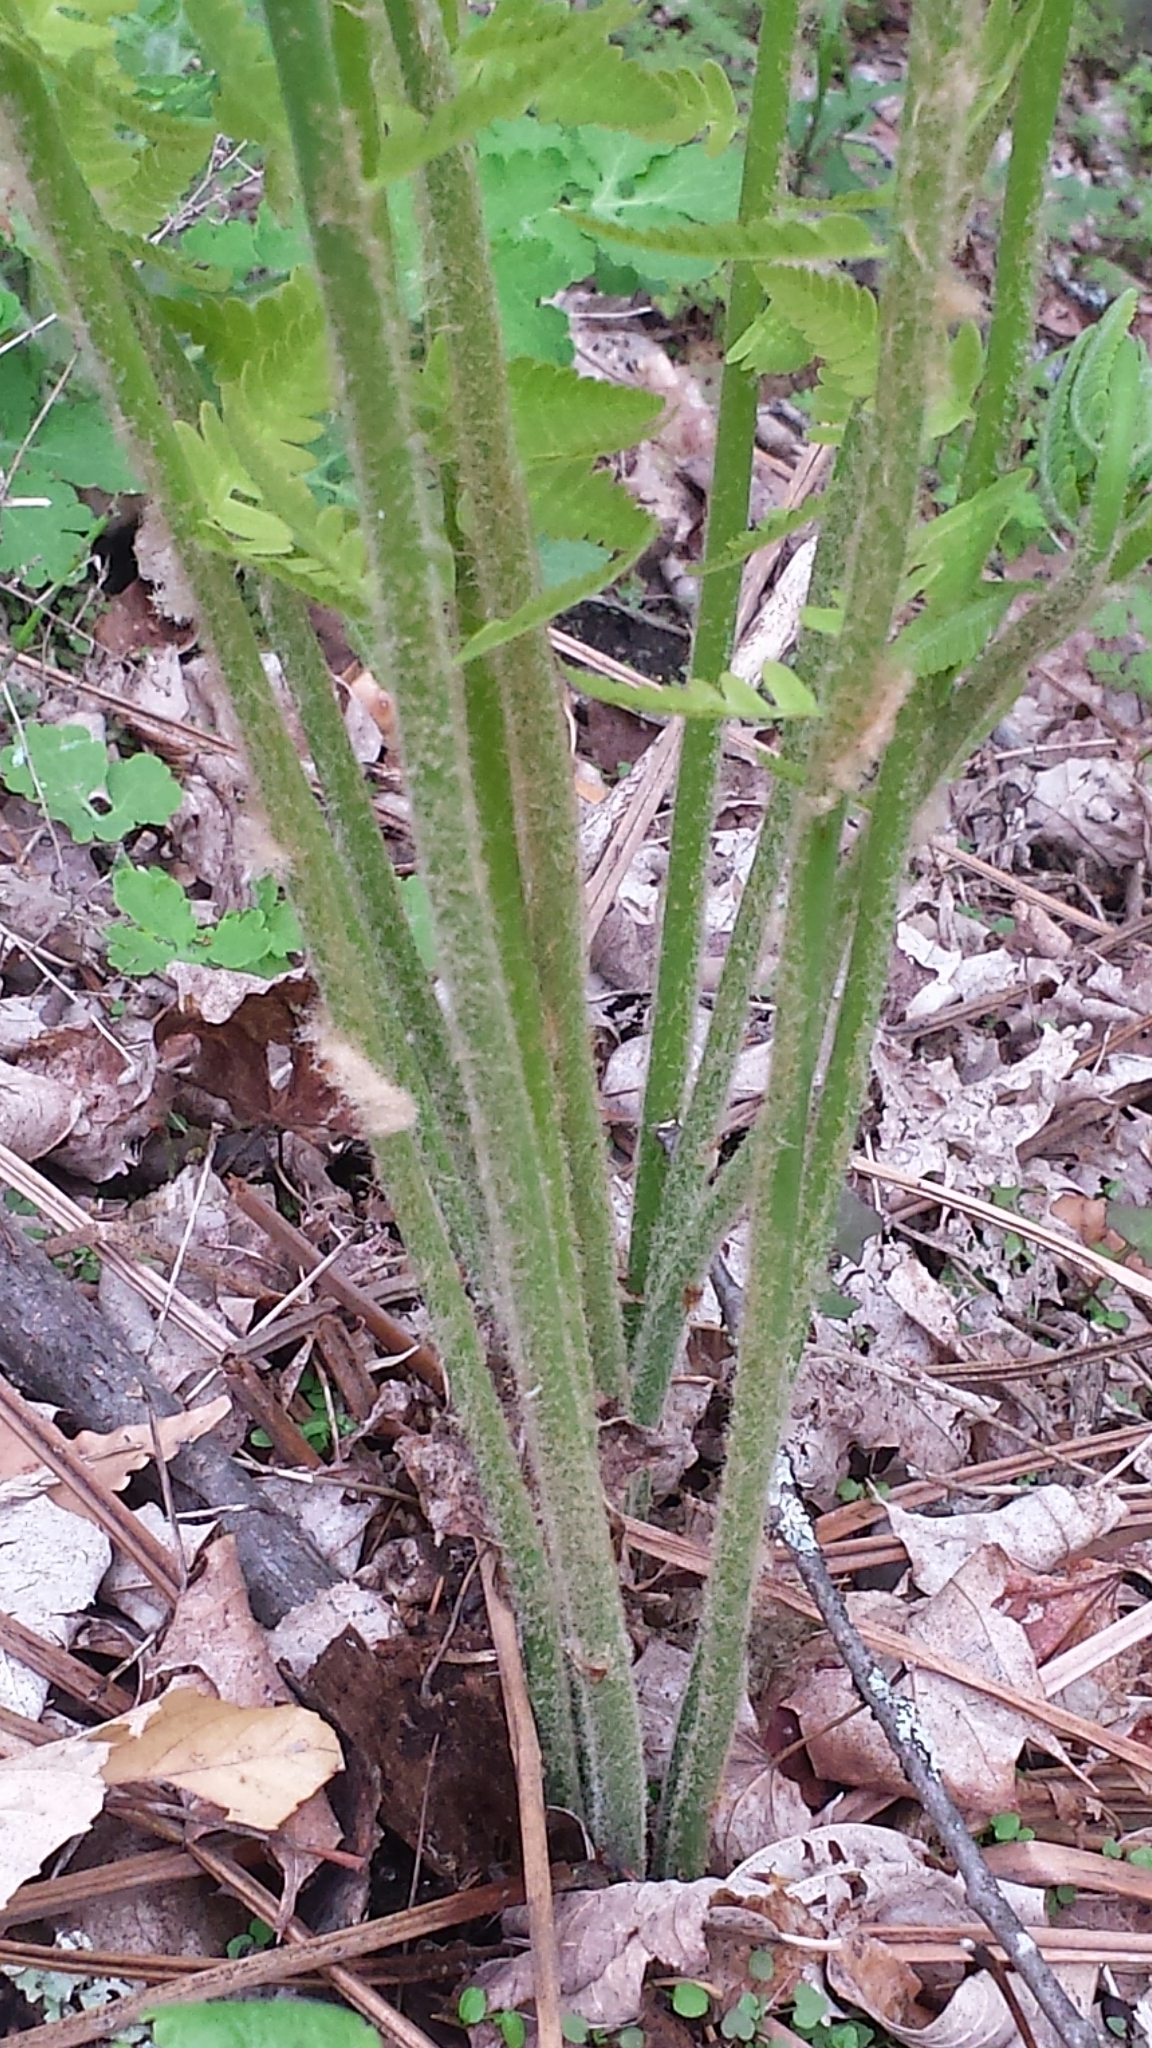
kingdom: Plantae
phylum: Tracheophyta
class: Polypodiopsida
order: Osmundales
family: Osmundaceae
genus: Osmundastrum
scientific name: Osmundastrum cinnamomeum
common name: Cinnamon fern
